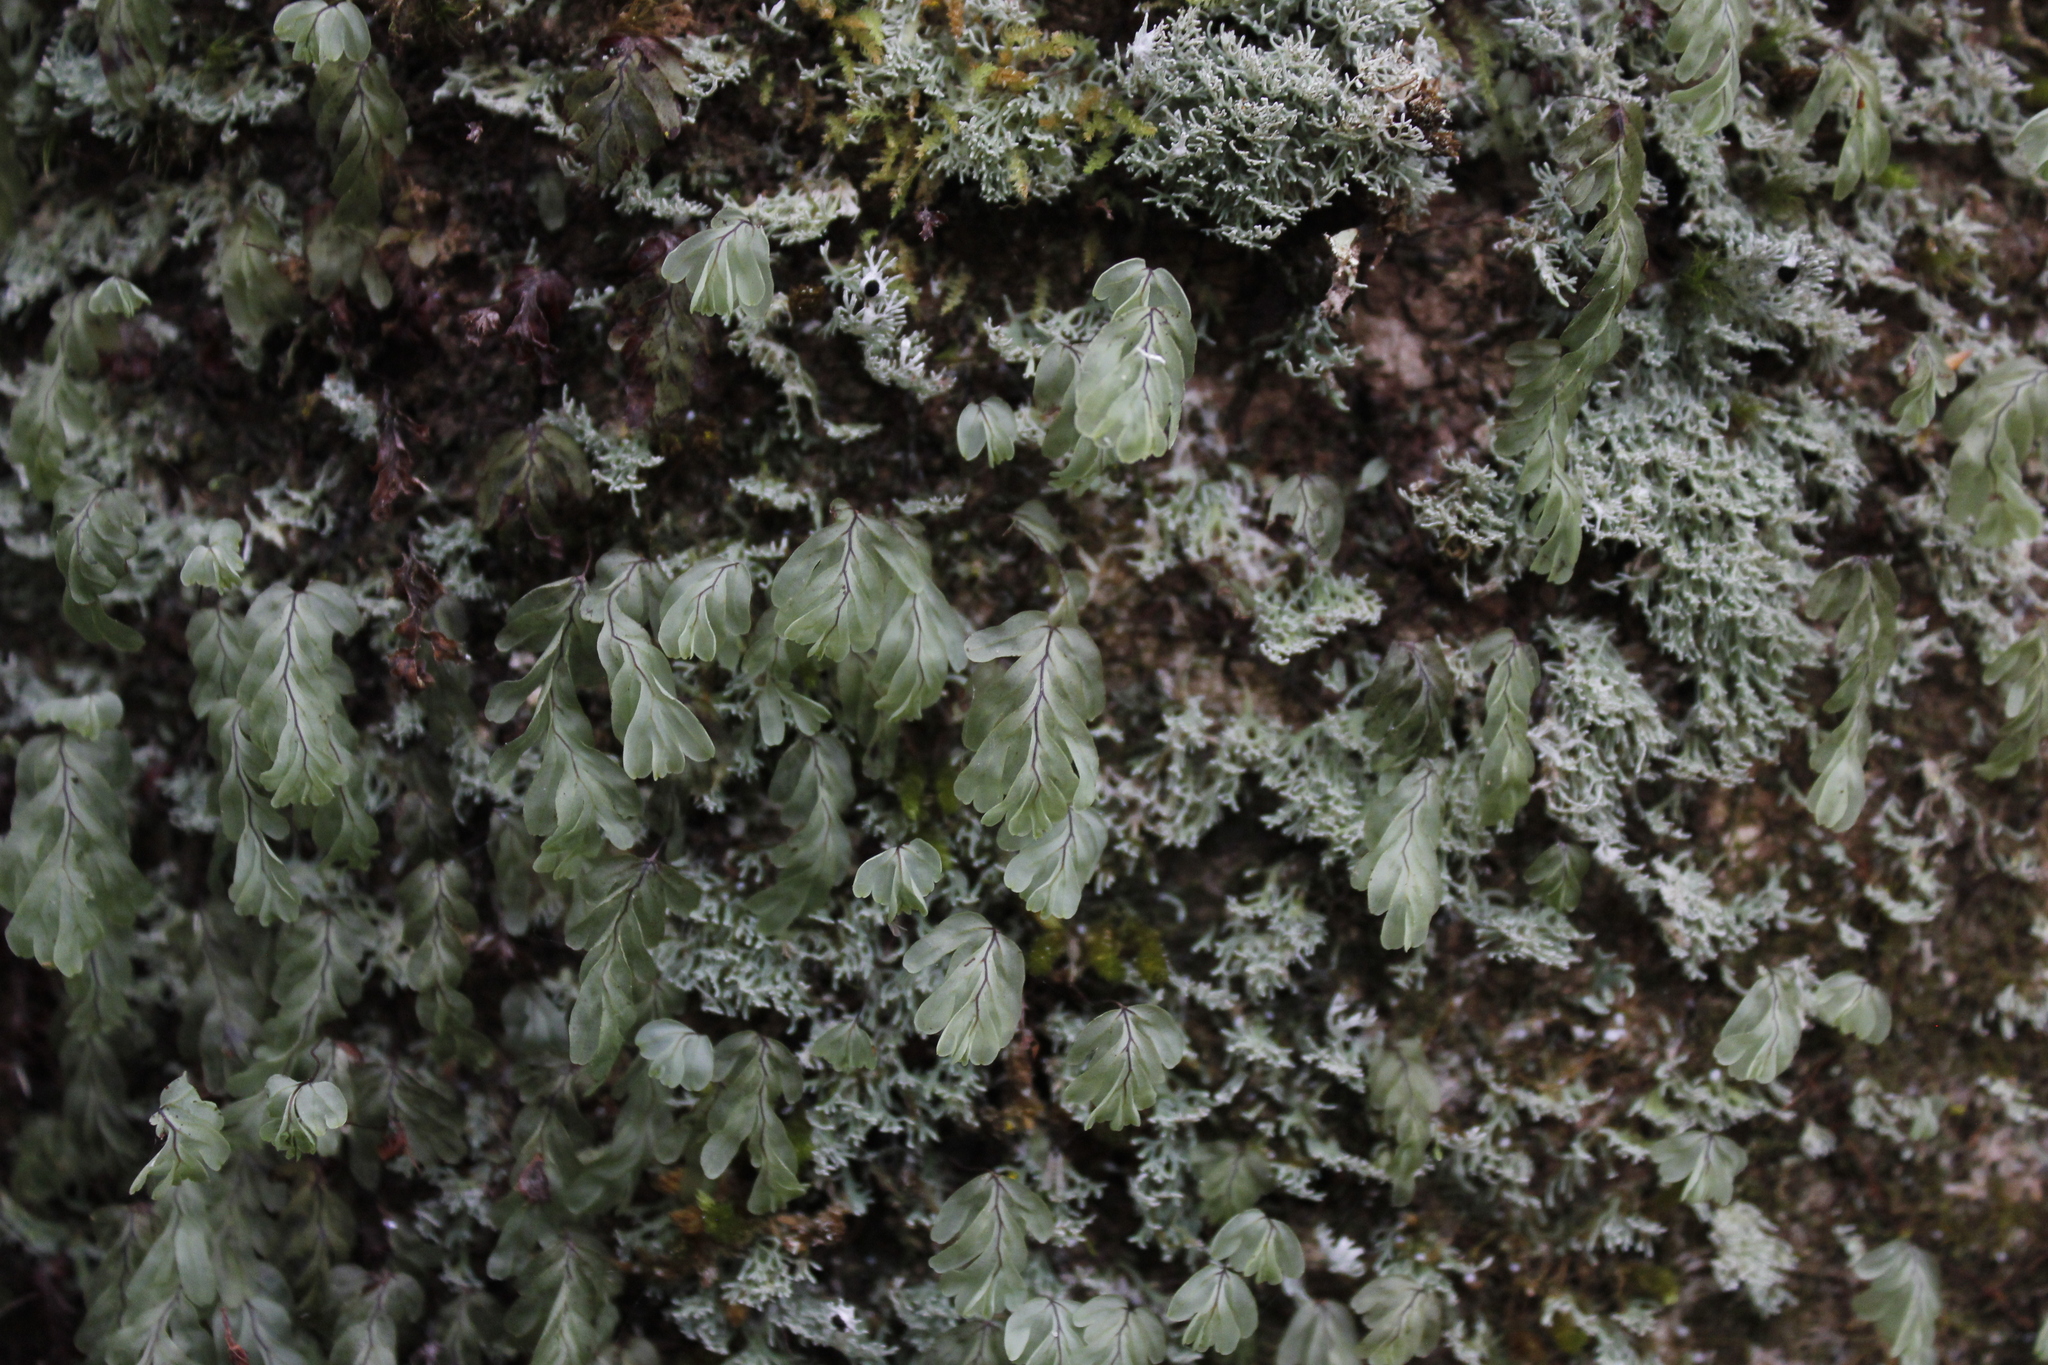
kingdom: Plantae
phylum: Tracheophyta
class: Polypodiopsida
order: Hymenophyllales
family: Hymenophyllaceae
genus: Hymenophyllum
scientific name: Hymenophyllum rarum
